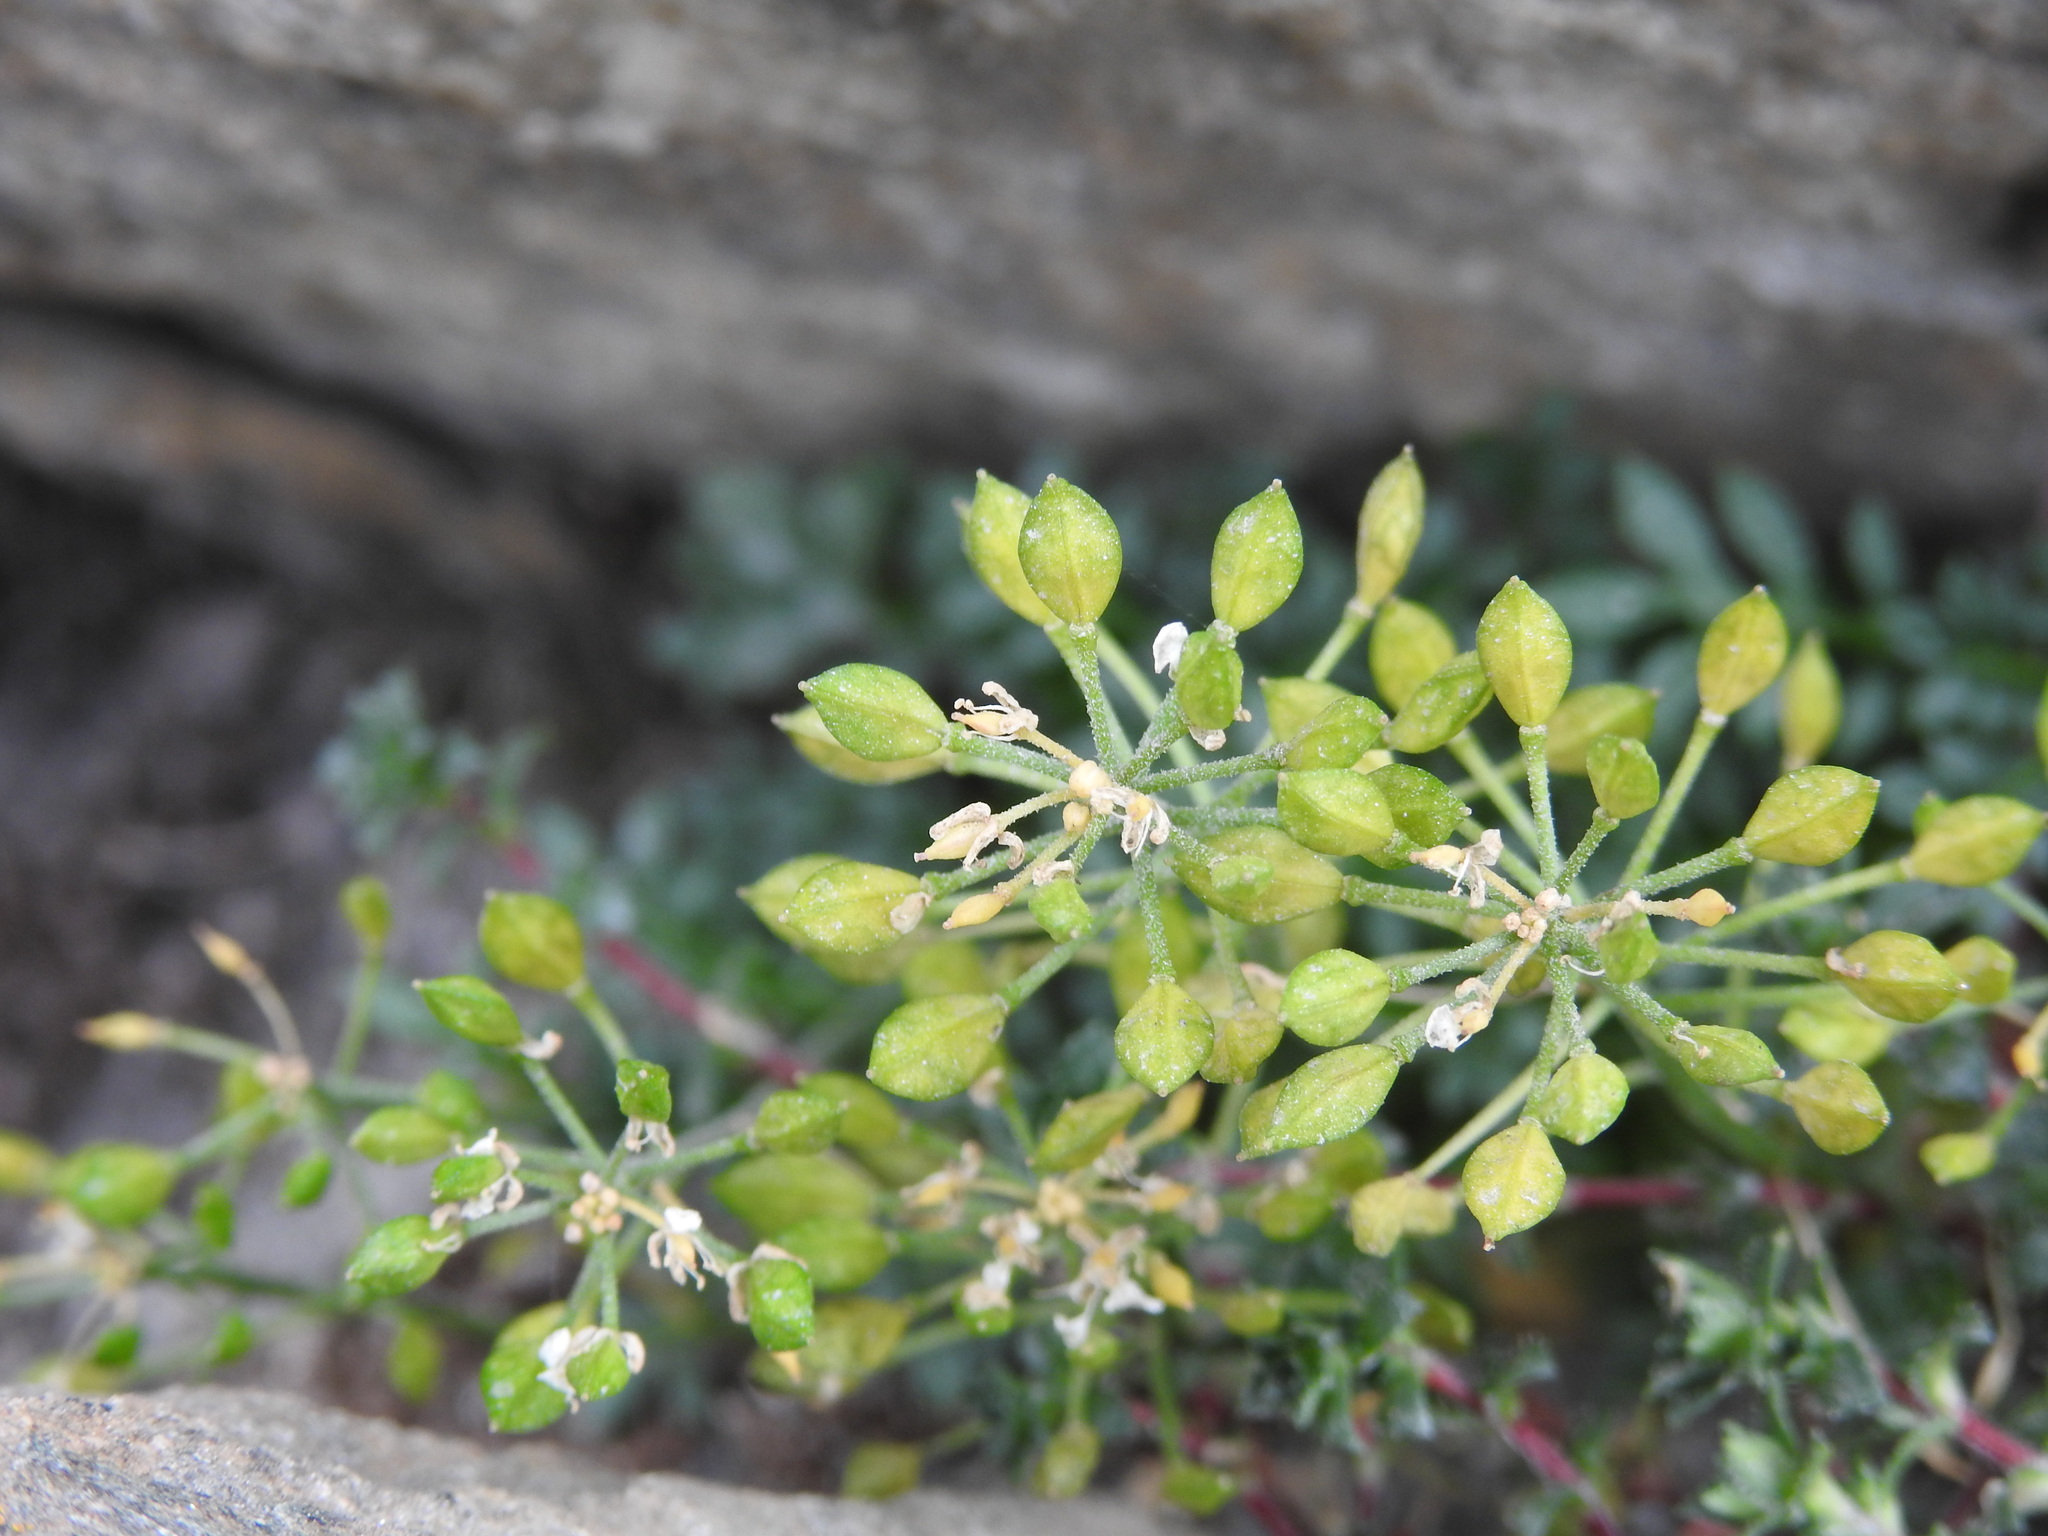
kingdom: Plantae
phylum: Tracheophyta
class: Magnoliopsida
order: Brassicales
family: Brassicaceae
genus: Hornungia
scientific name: Hornungia alpina
